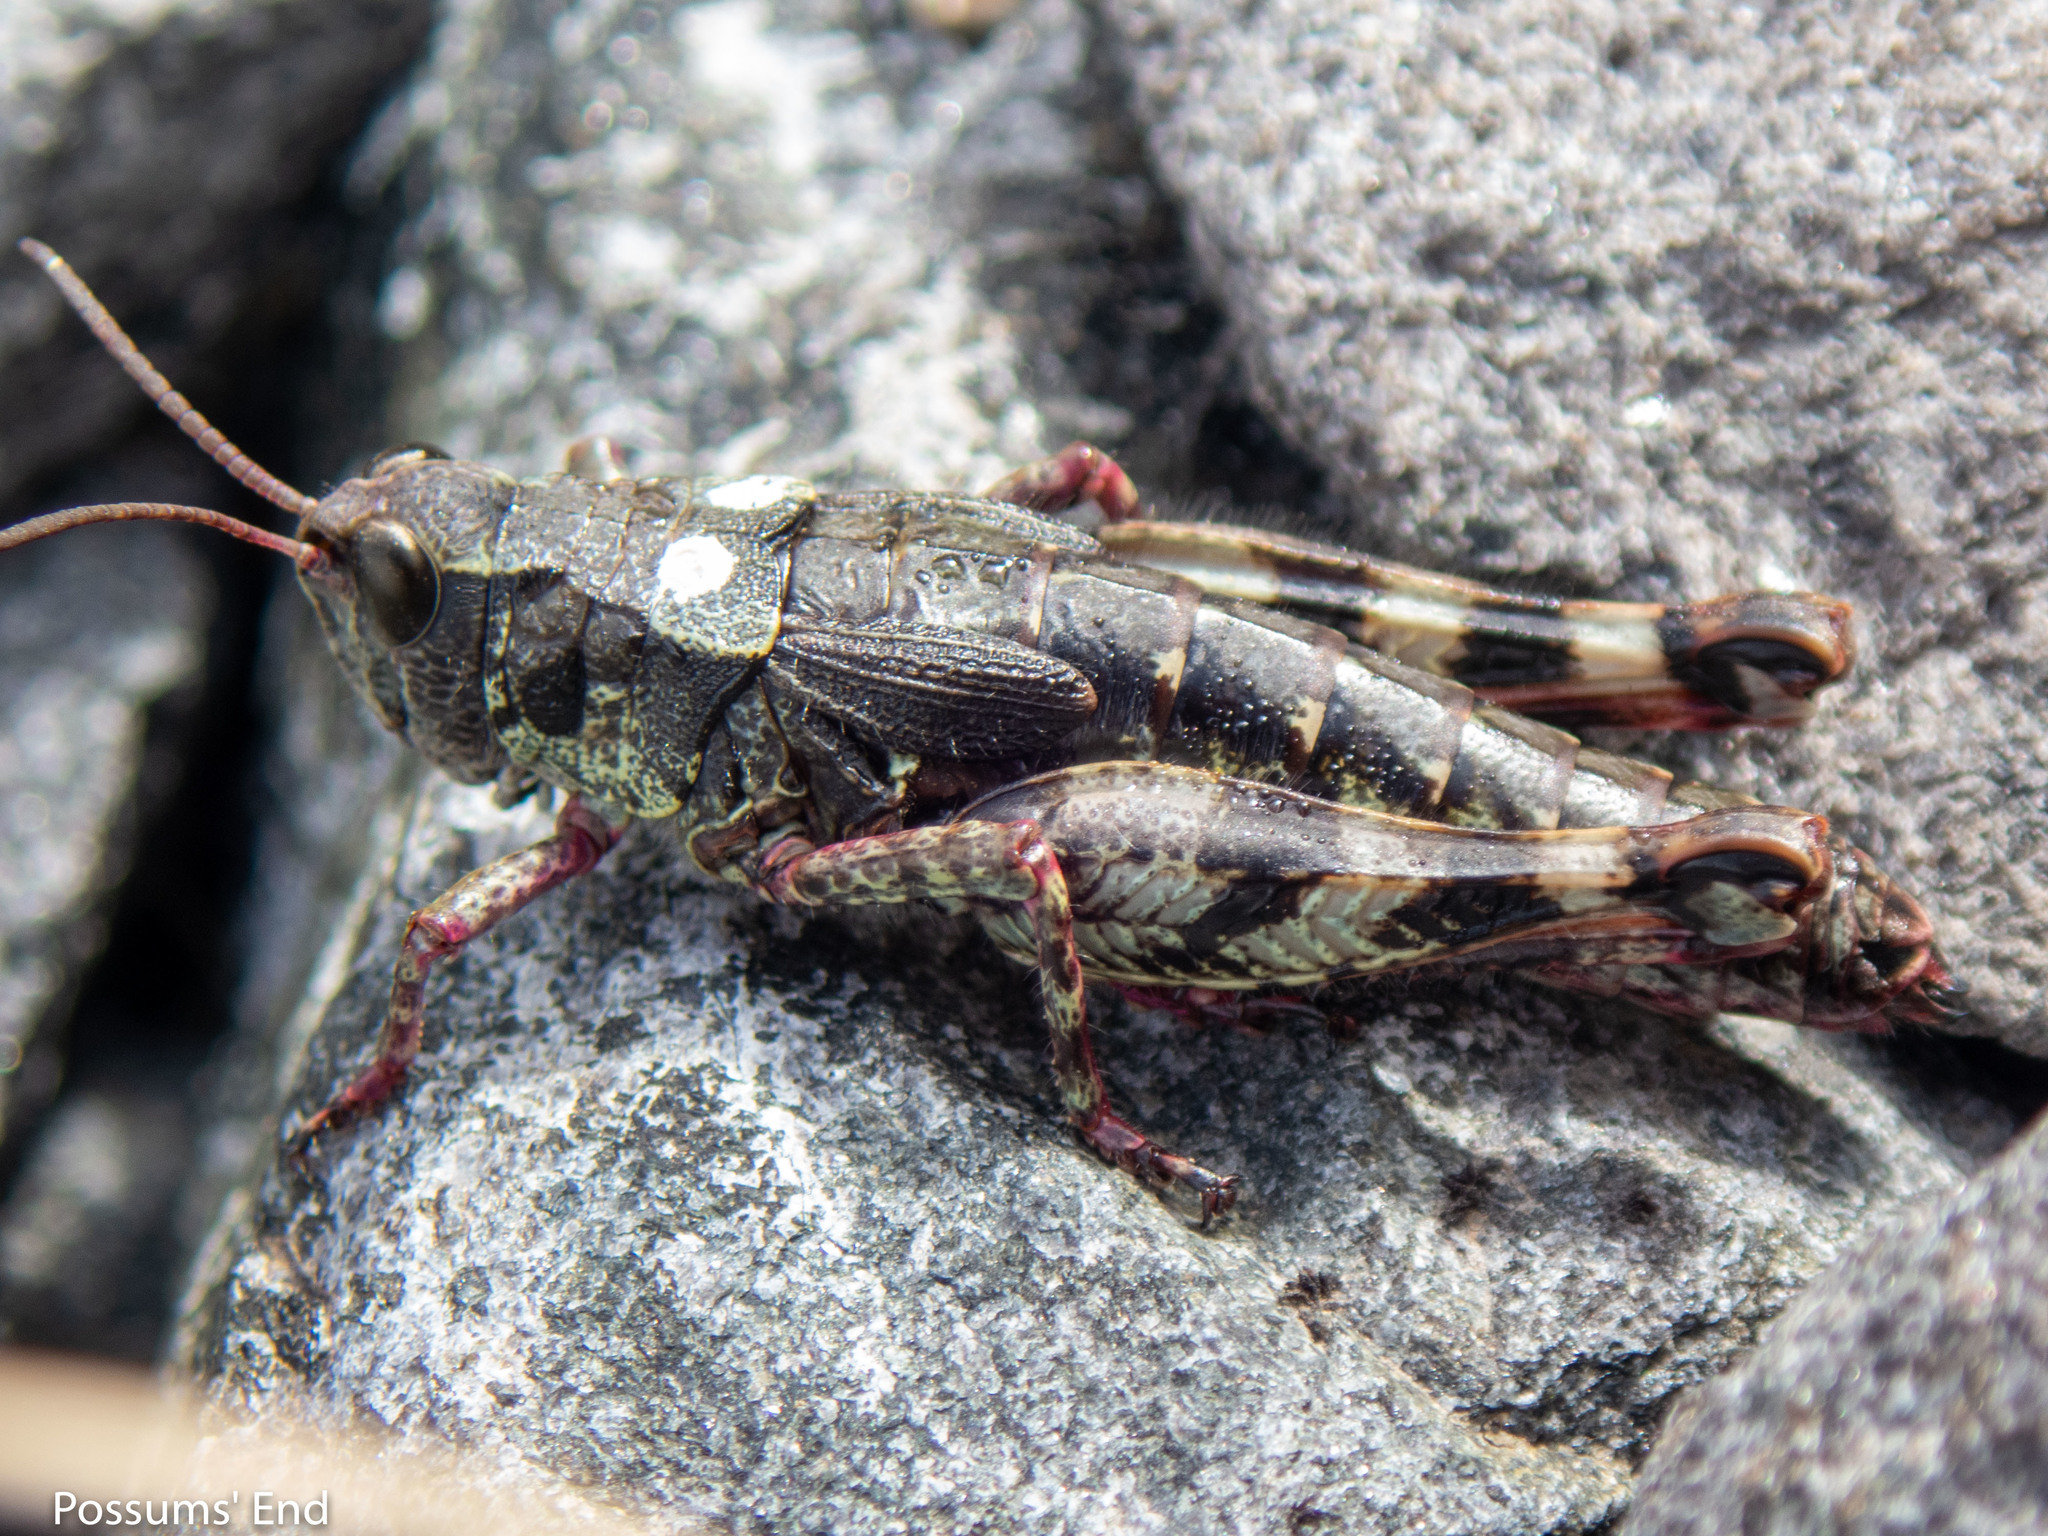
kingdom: Animalia
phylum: Arthropoda
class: Insecta
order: Orthoptera
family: Acrididae
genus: Sigaus
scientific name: Sigaus australis
